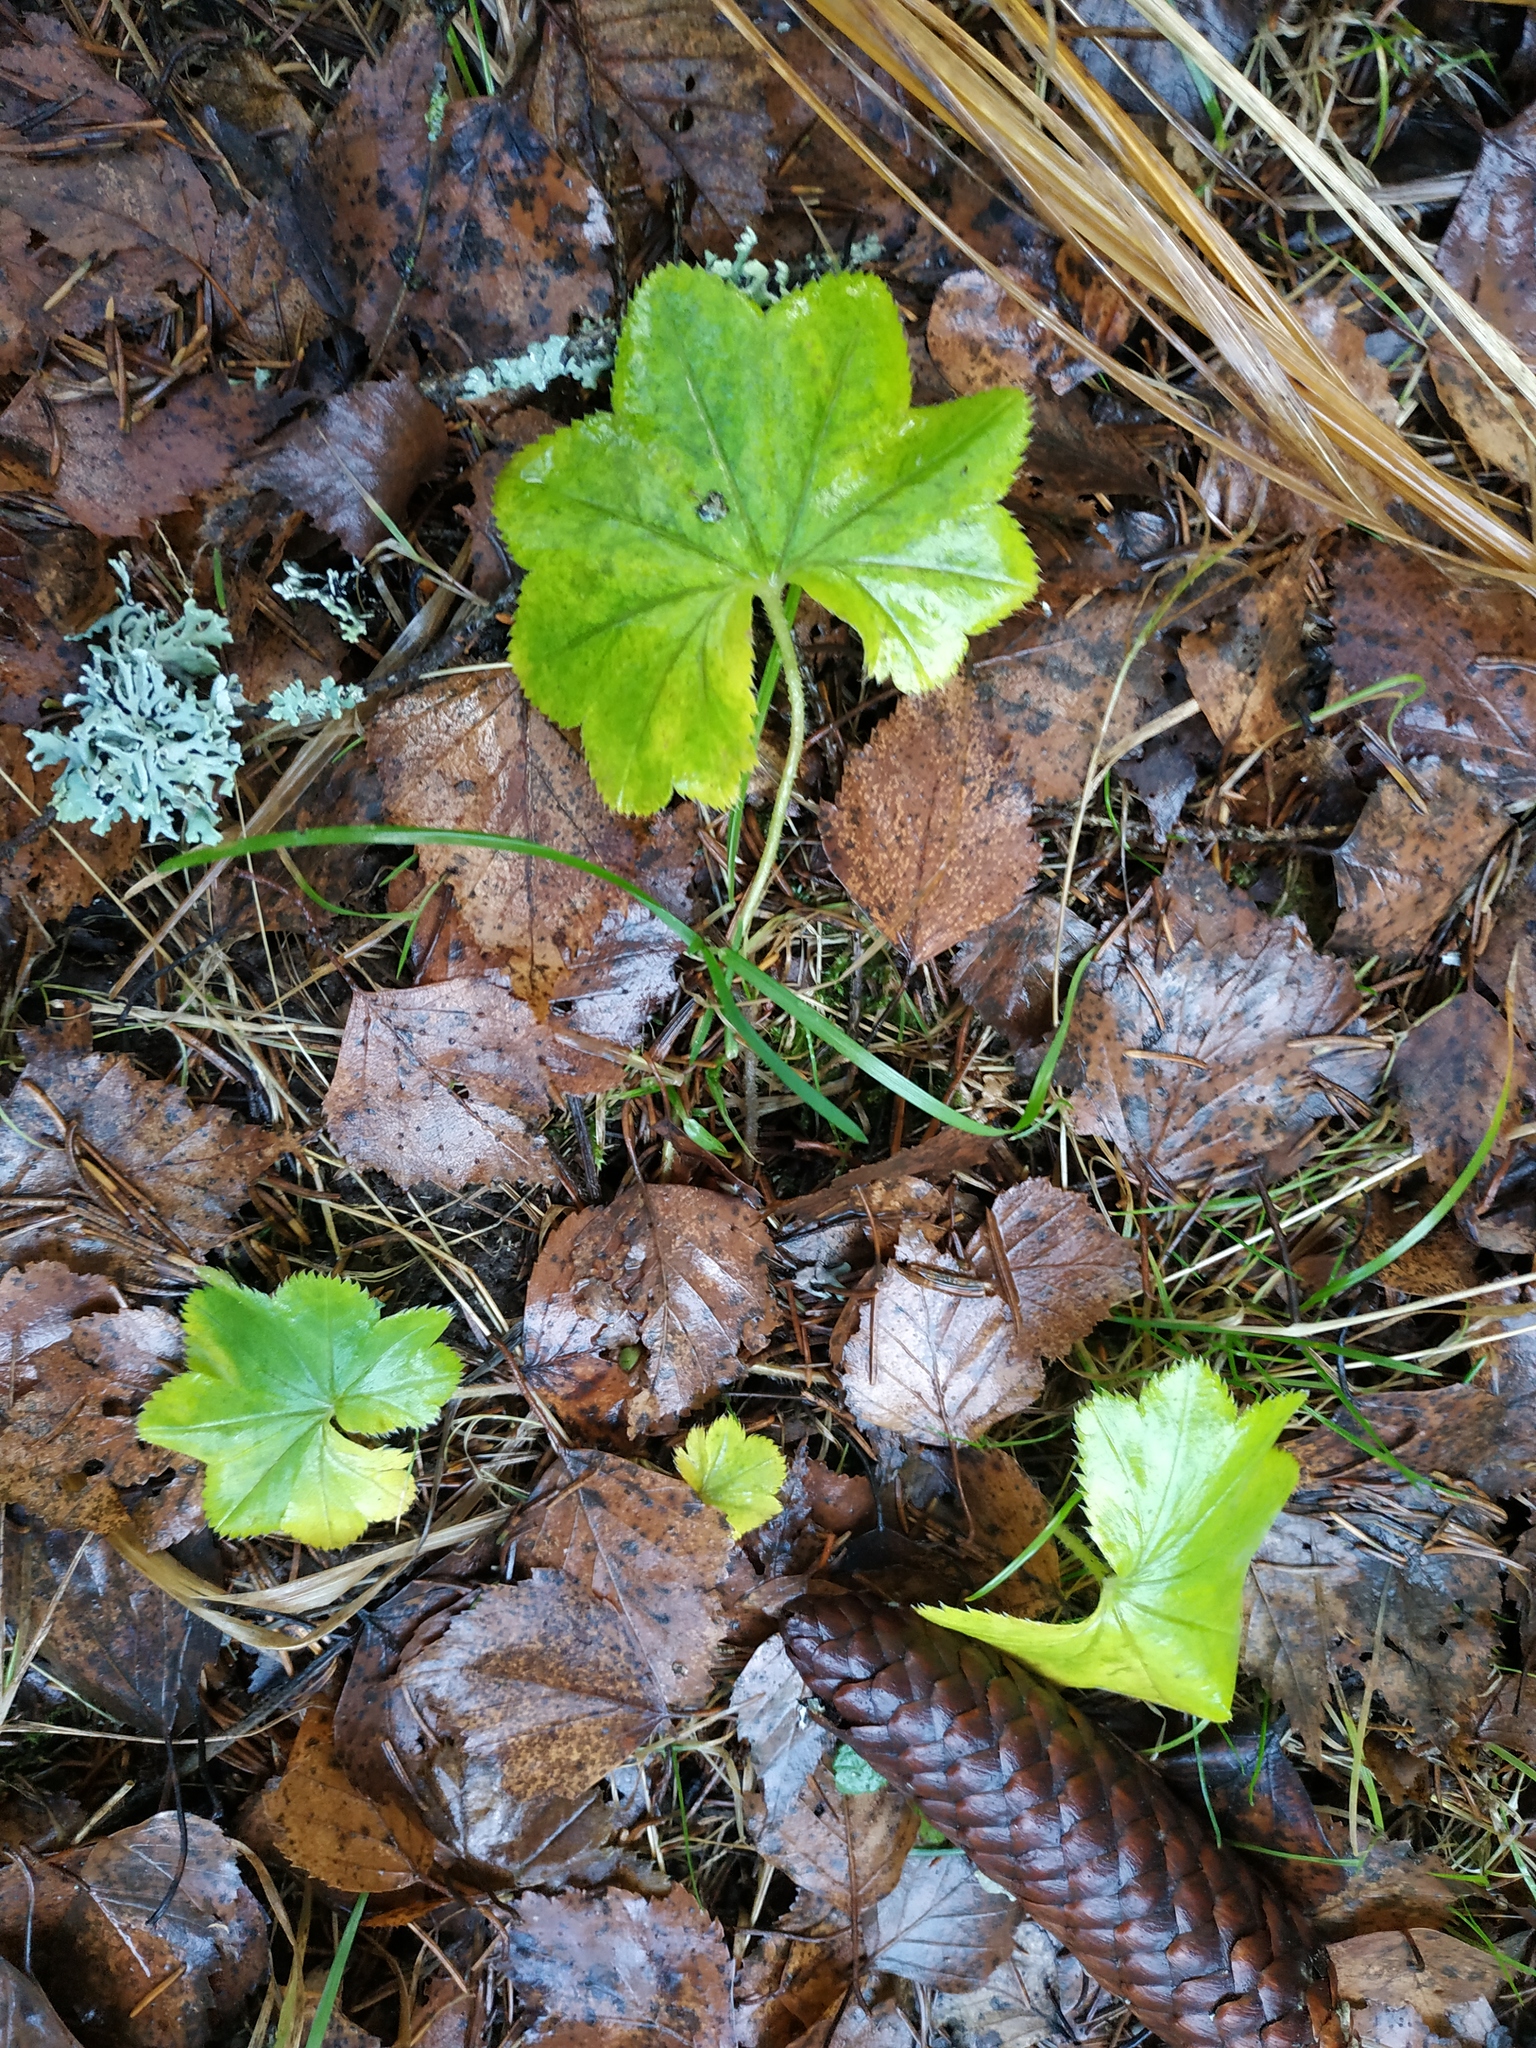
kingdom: Plantae
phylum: Tracheophyta
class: Magnoliopsida
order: Rosales
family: Rosaceae
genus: Alchemilla
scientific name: Alchemilla
